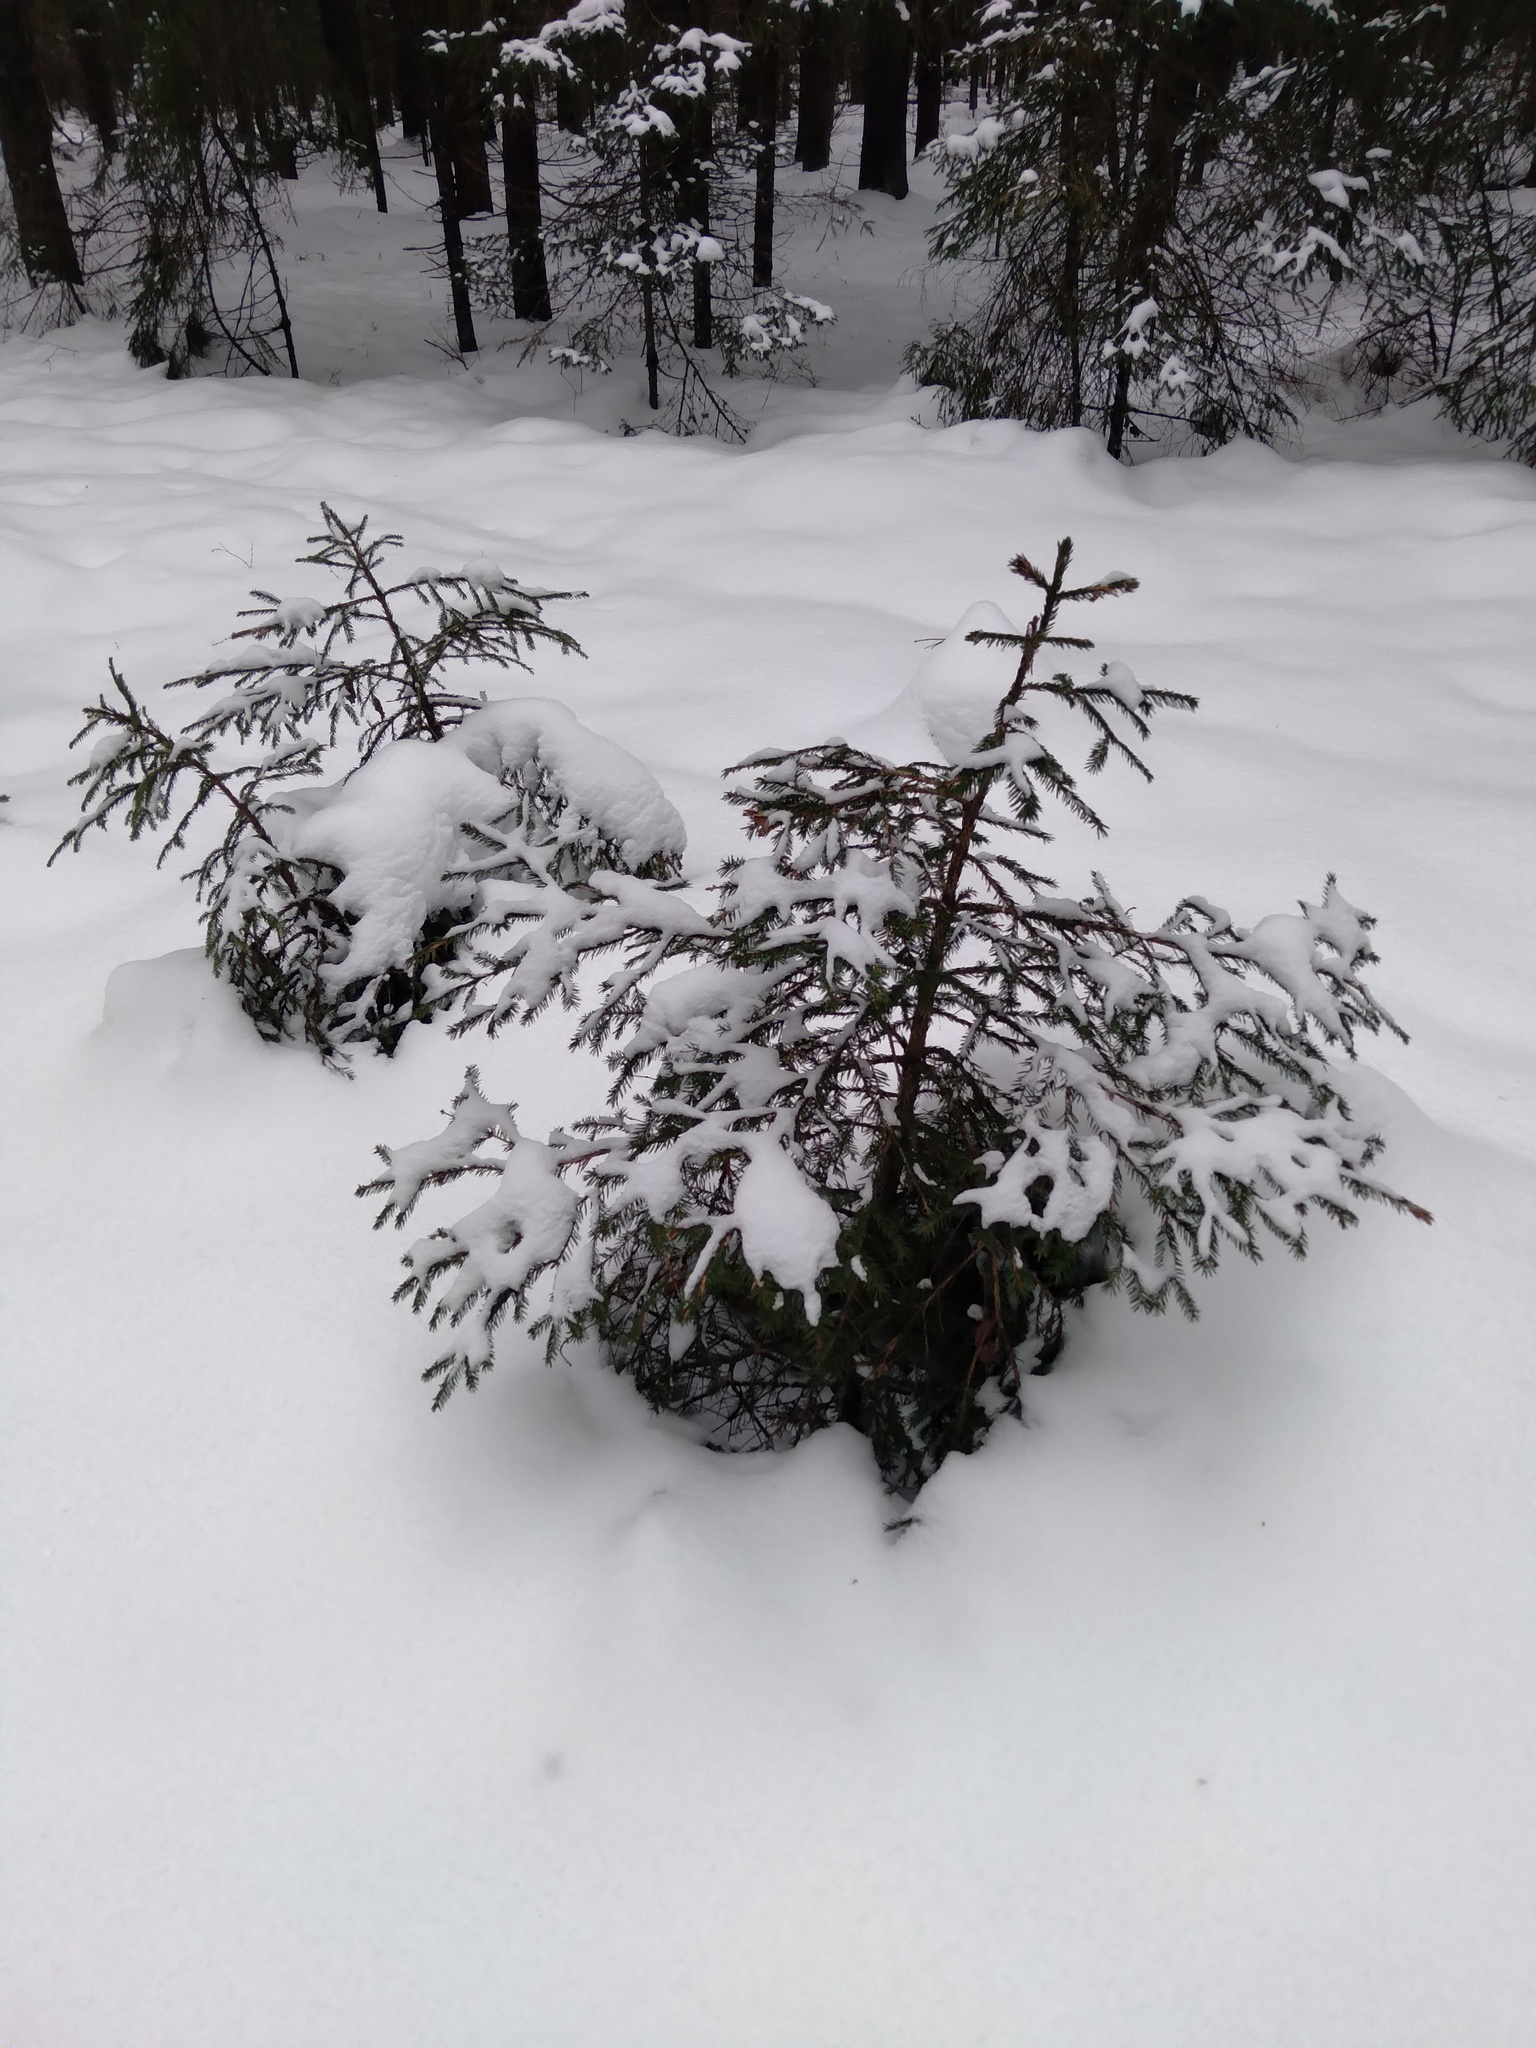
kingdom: Plantae
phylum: Tracheophyta
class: Pinopsida
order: Pinales
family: Pinaceae
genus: Picea
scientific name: Picea abies
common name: Norway spruce
